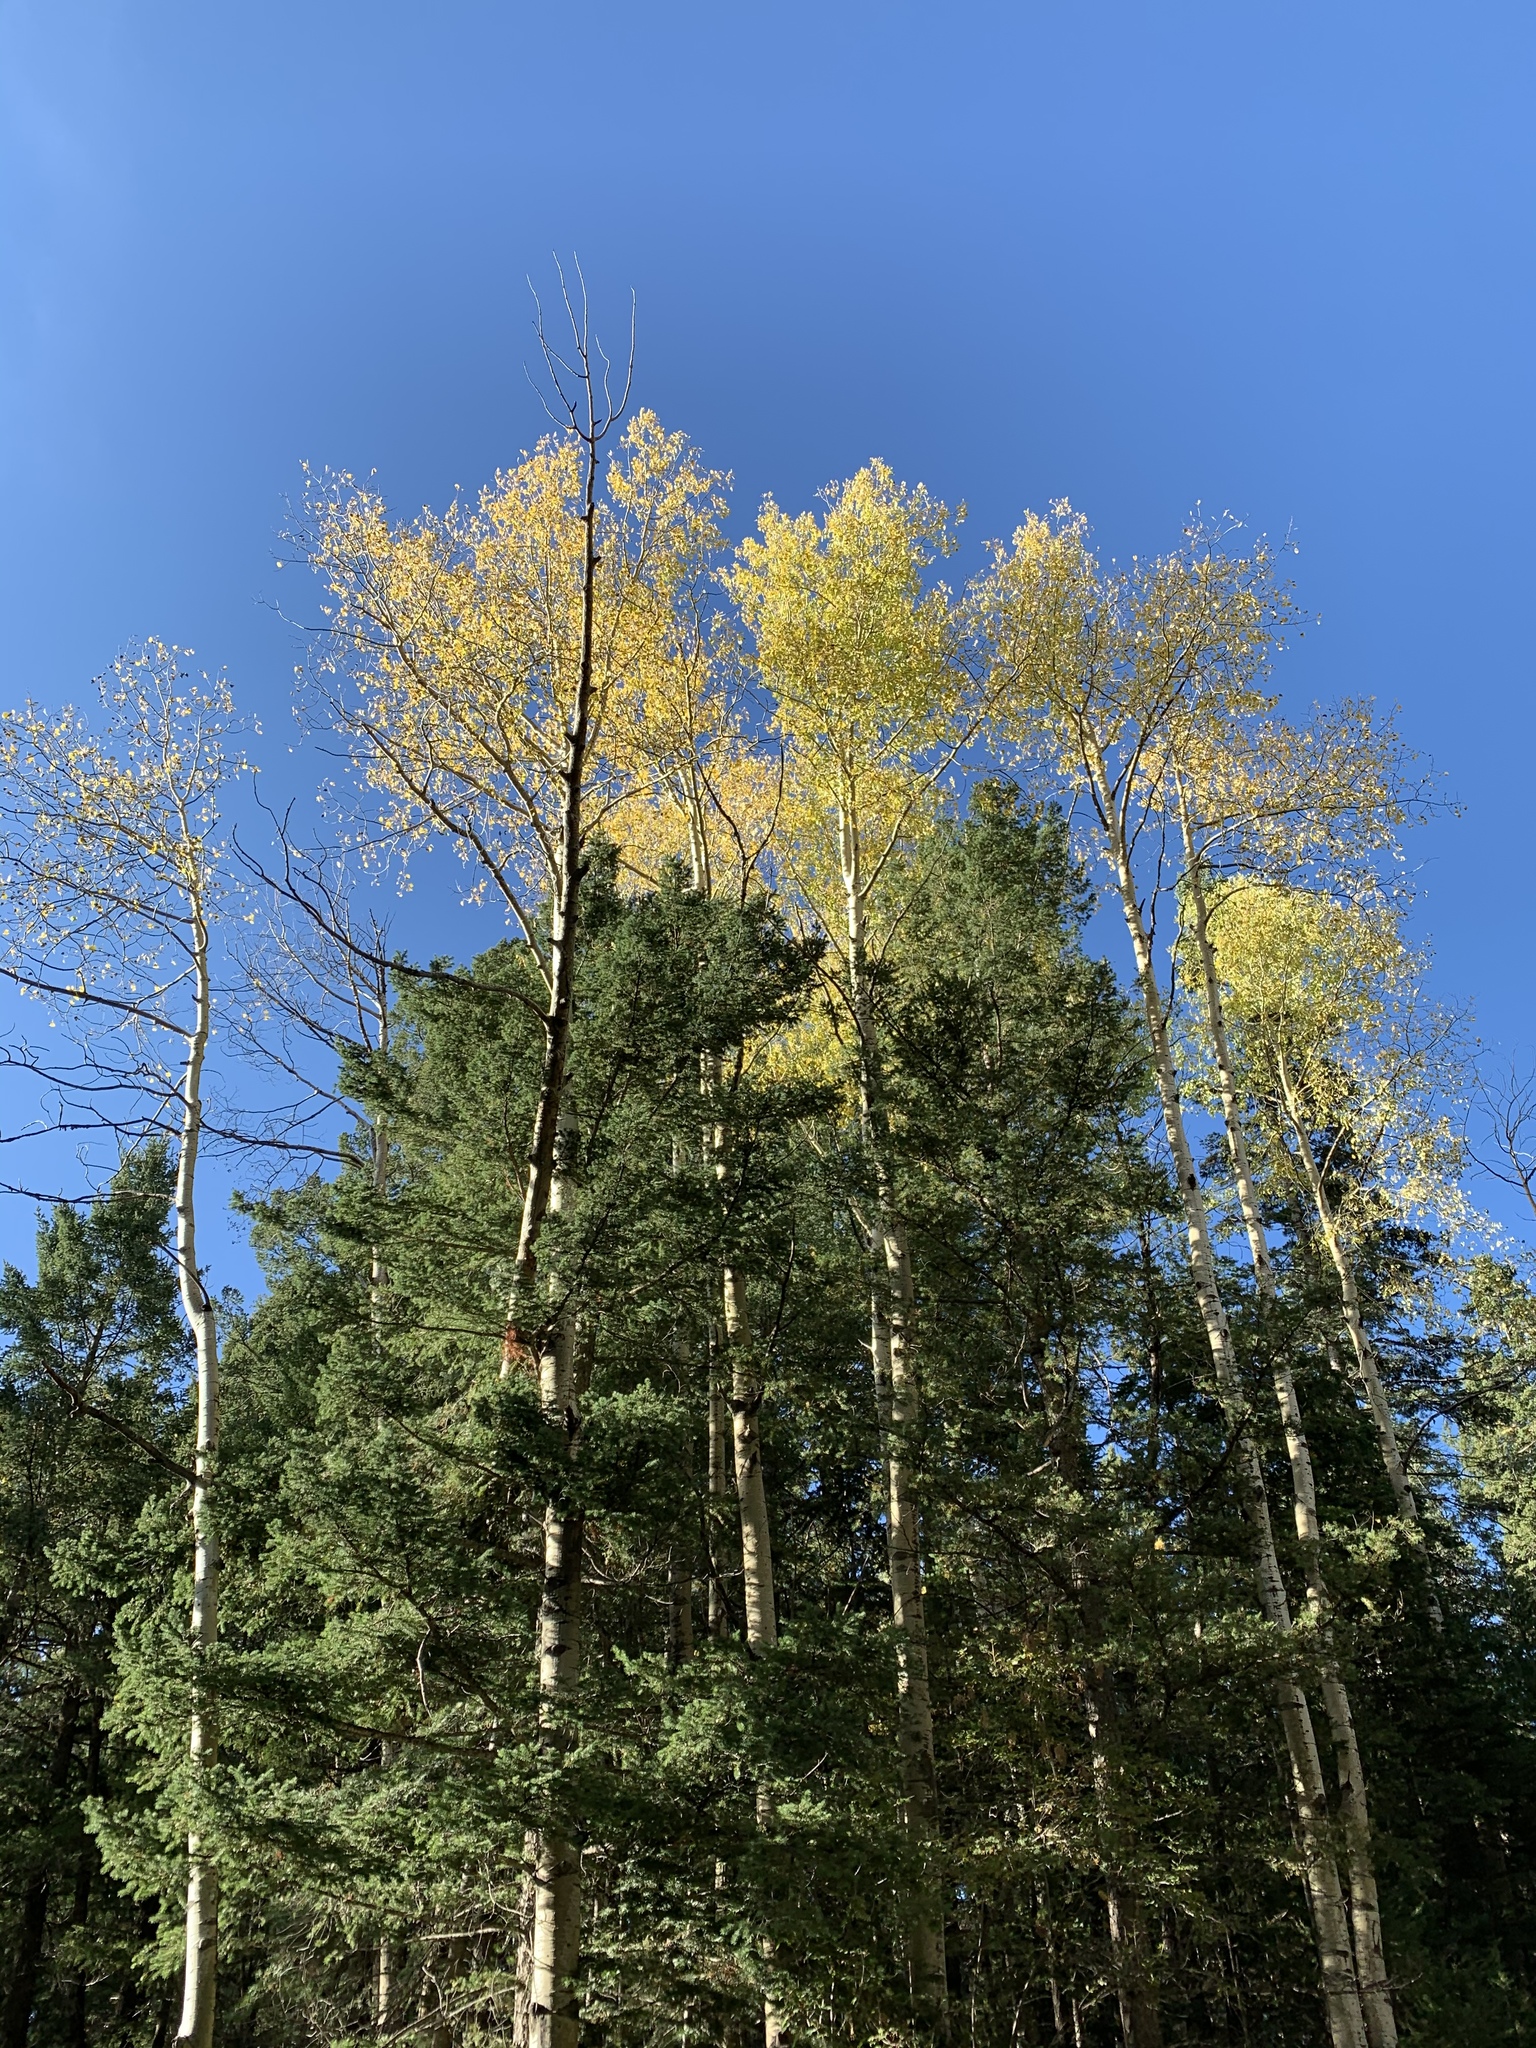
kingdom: Plantae
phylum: Tracheophyta
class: Magnoliopsida
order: Malpighiales
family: Salicaceae
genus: Populus
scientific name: Populus tremuloides
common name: Quaking aspen
